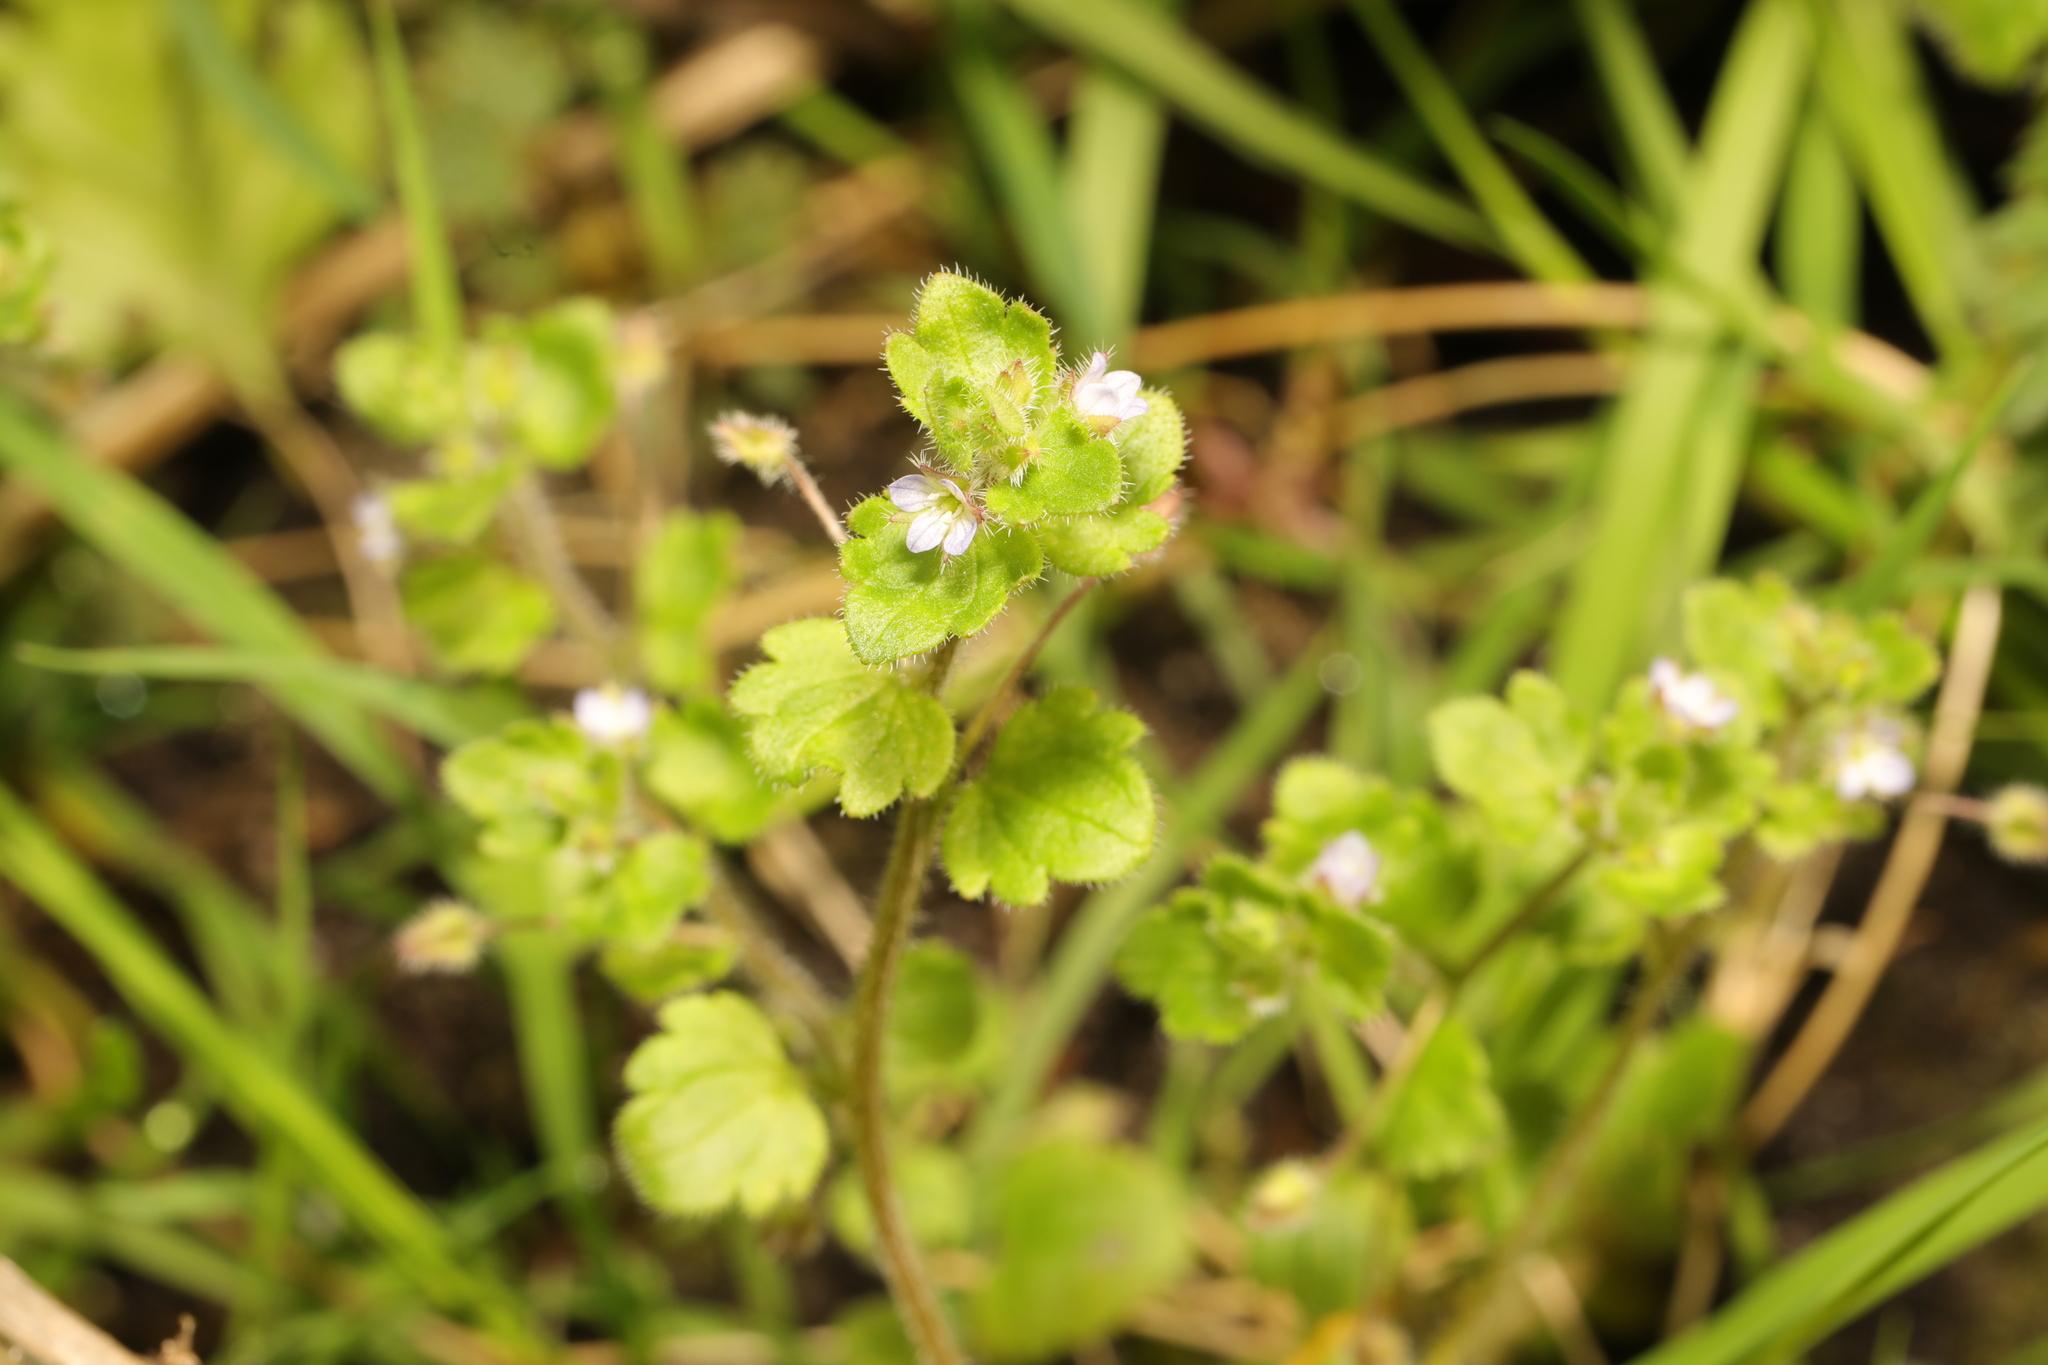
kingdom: Plantae
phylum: Tracheophyta
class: Magnoliopsida
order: Lamiales
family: Plantaginaceae
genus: Veronica
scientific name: Veronica sublobata
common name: False ivy-leaved speedwell
